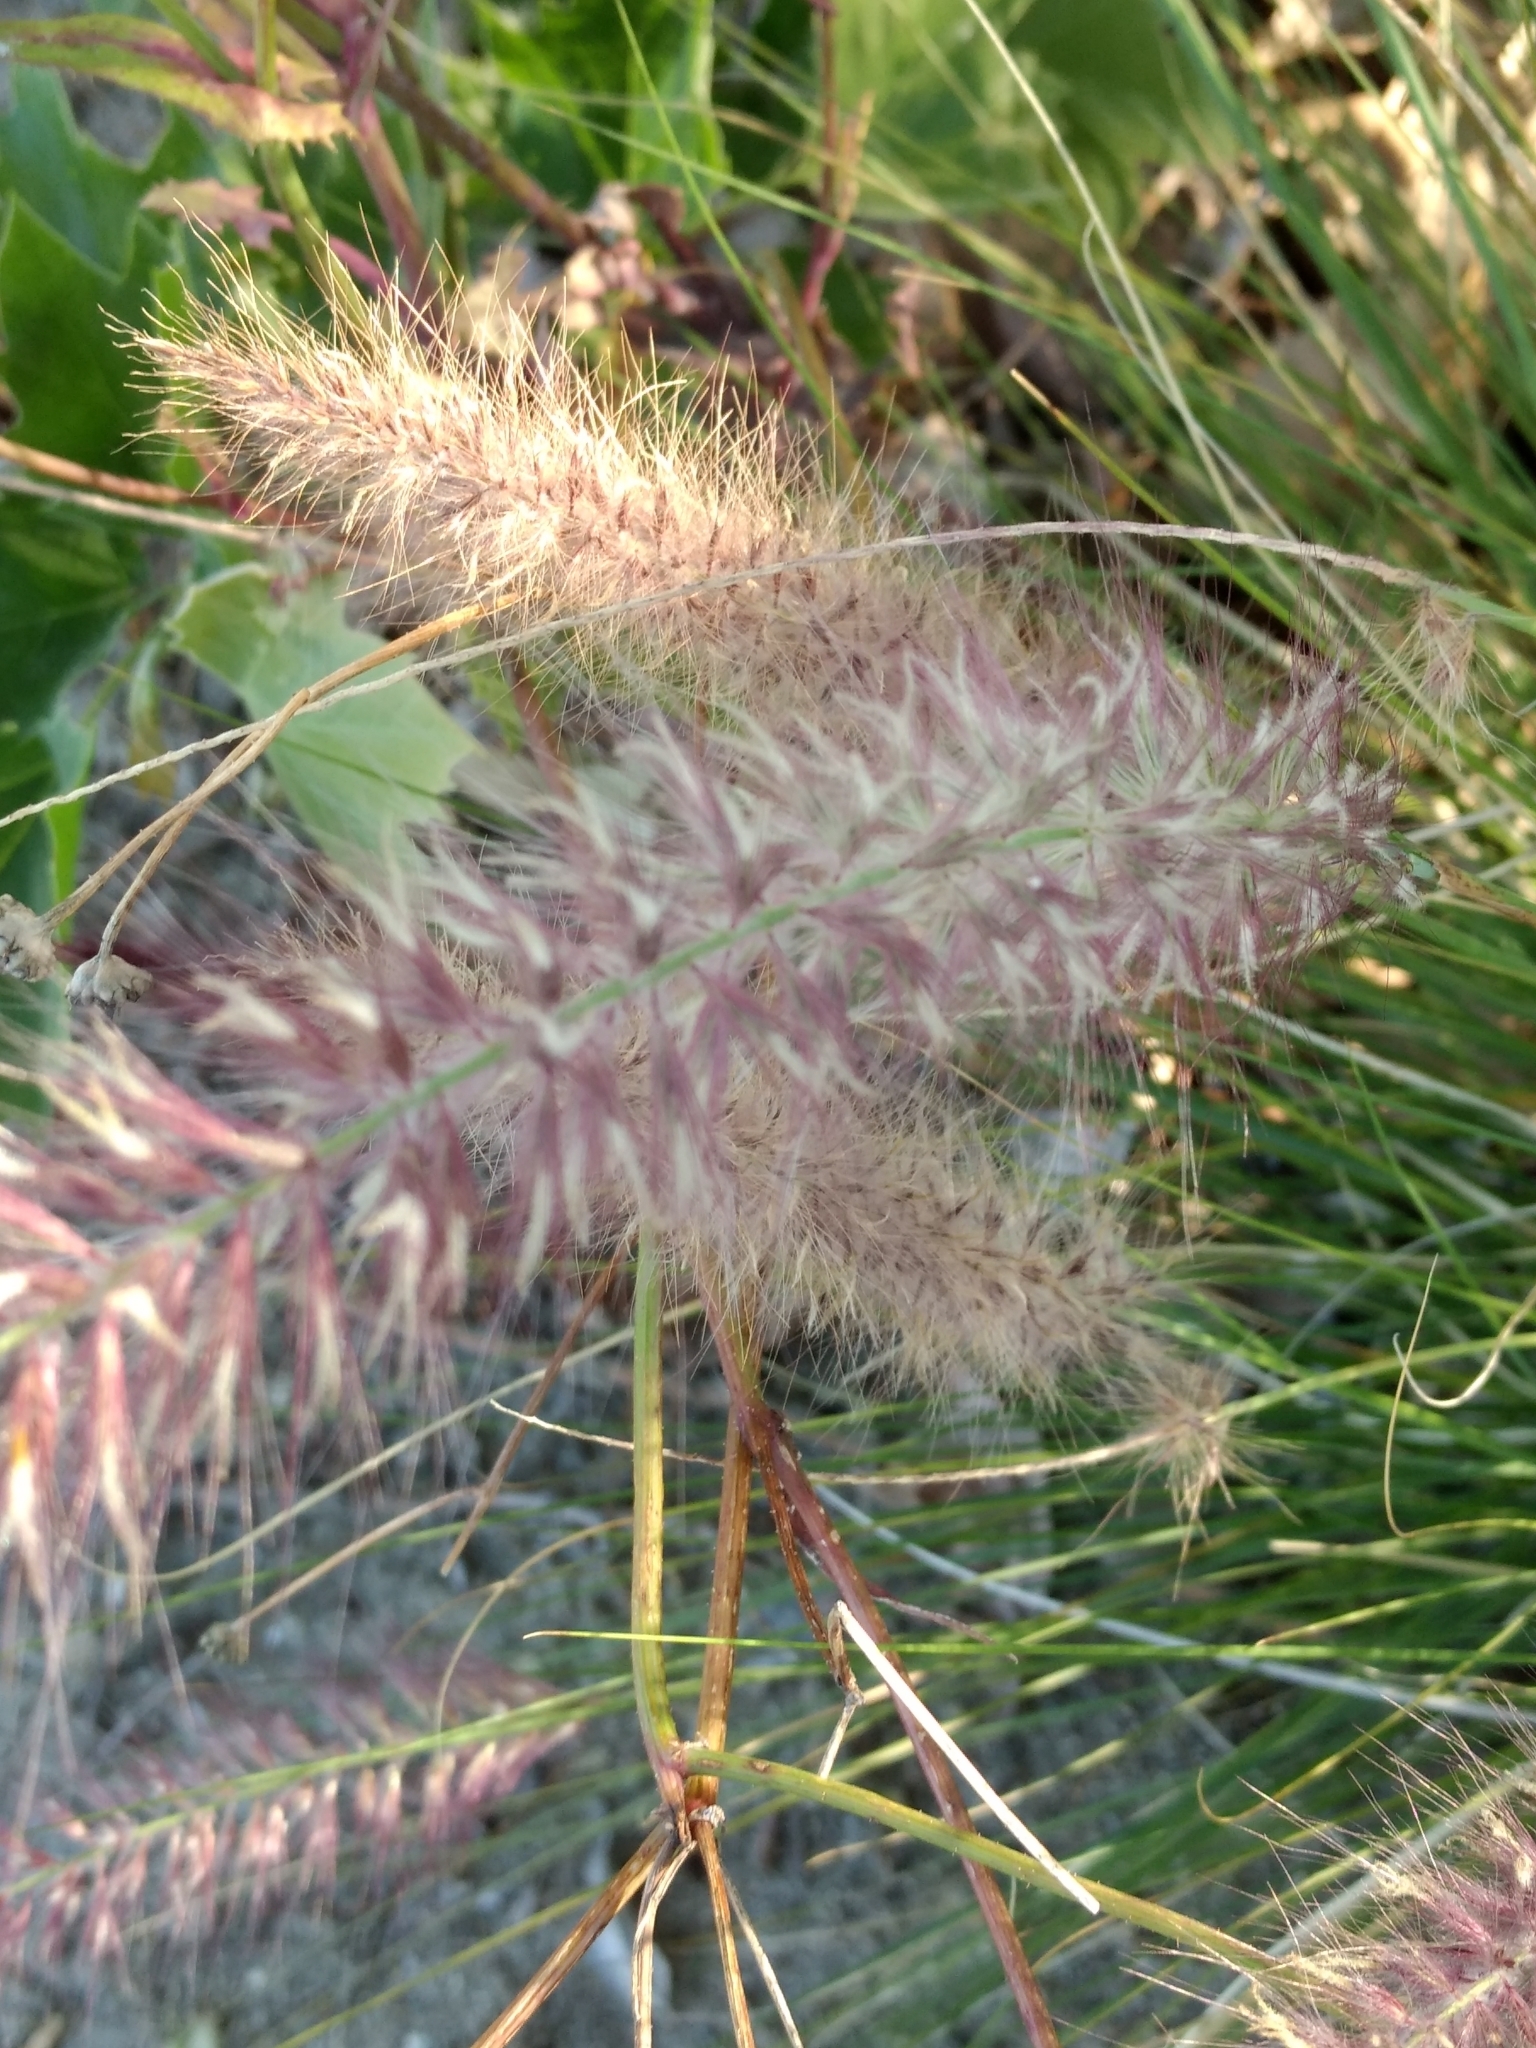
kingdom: Plantae
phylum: Tracheophyta
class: Liliopsida
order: Poales
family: Poaceae
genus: Cenchrus
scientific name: Cenchrus setaceus
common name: Crimson fountaingrass
